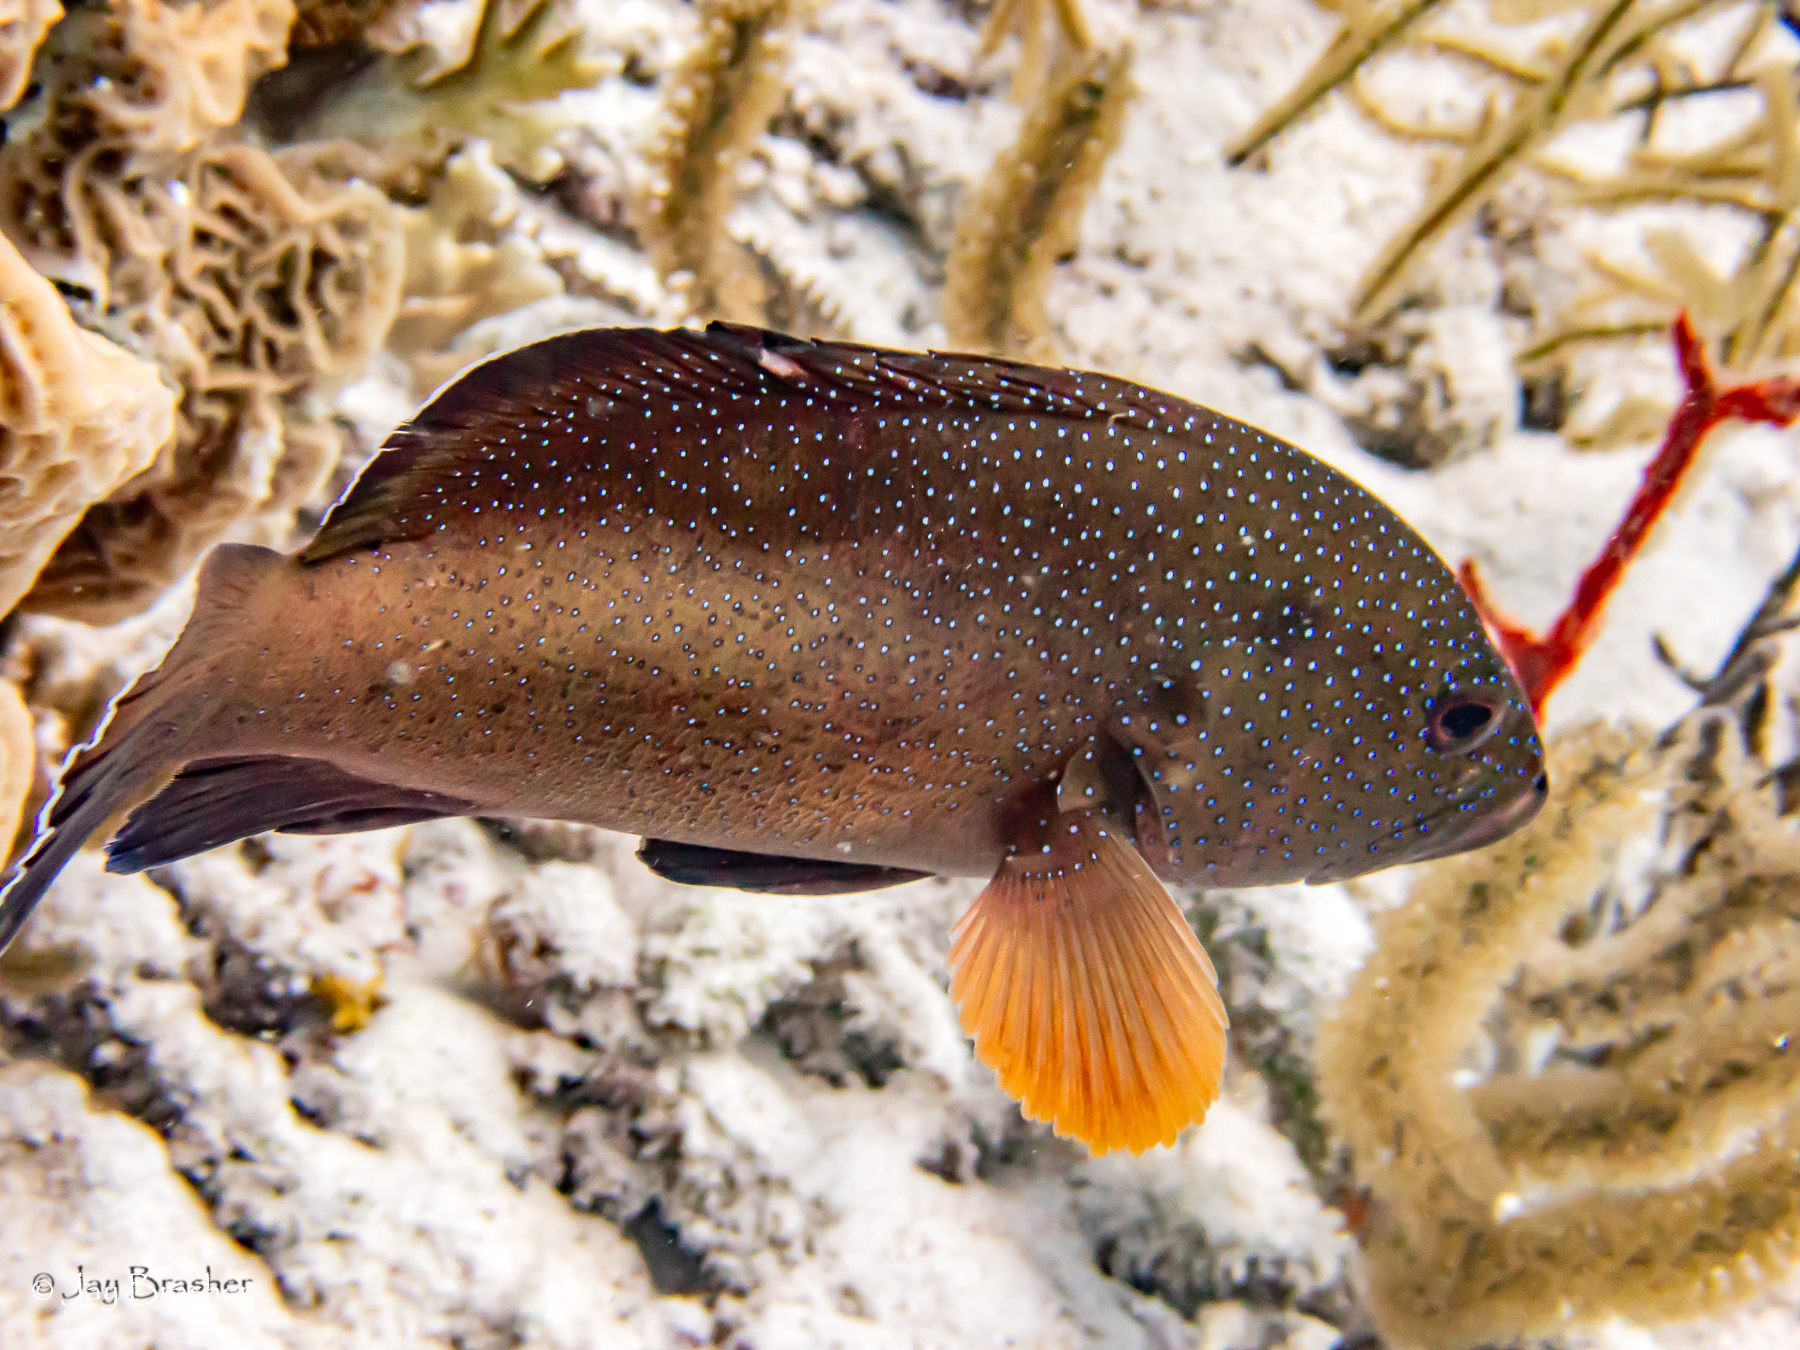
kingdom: Animalia
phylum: Chordata
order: Perciformes
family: Serranidae
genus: Cephalopholis
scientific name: Cephalopholis fulva
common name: Butterfish
